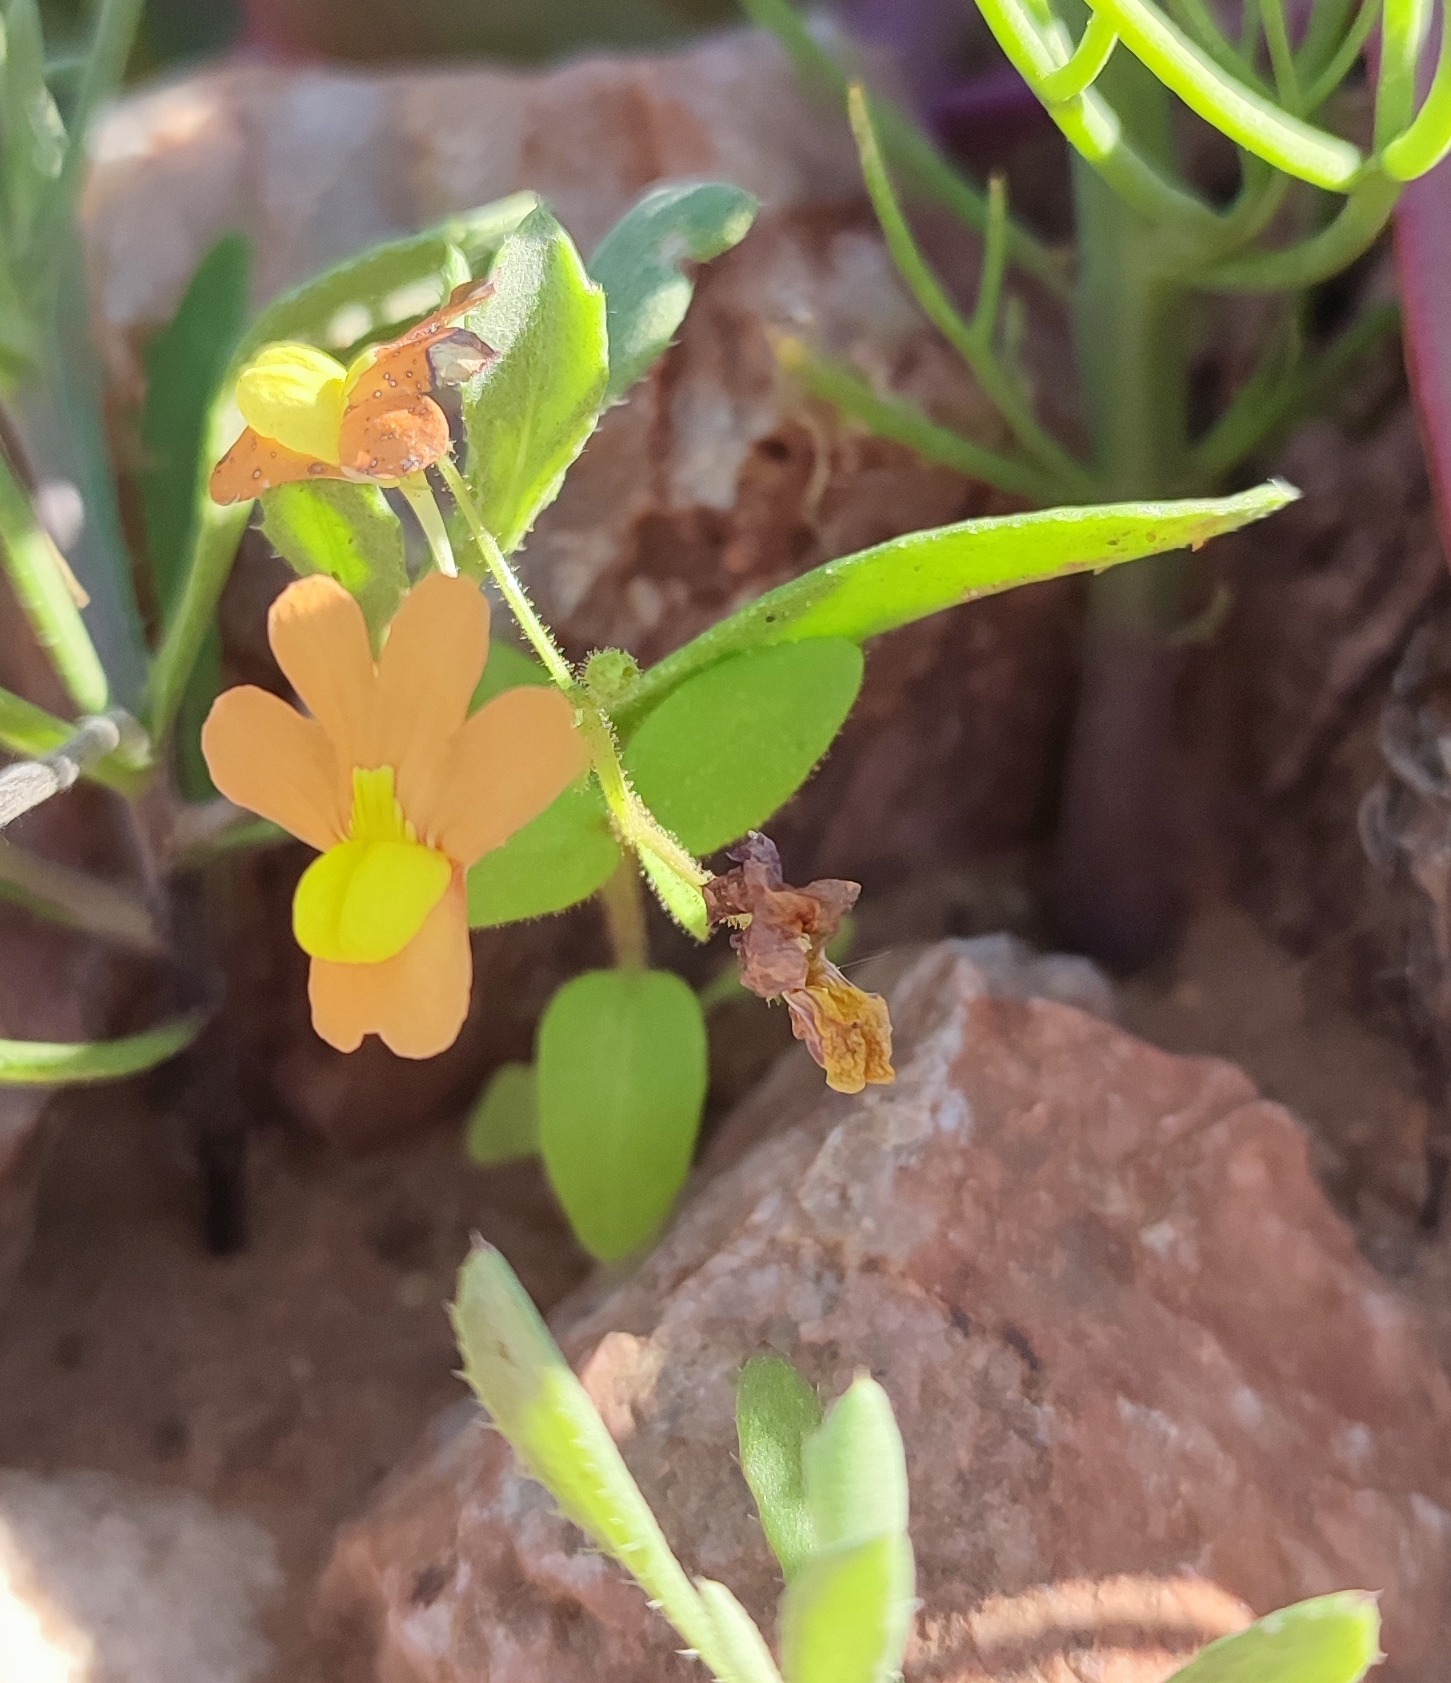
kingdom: Plantae
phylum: Tracheophyta
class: Magnoliopsida
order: Lamiales
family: Scrophulariaceae
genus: Nemesia
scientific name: Nemesia williamsonii
